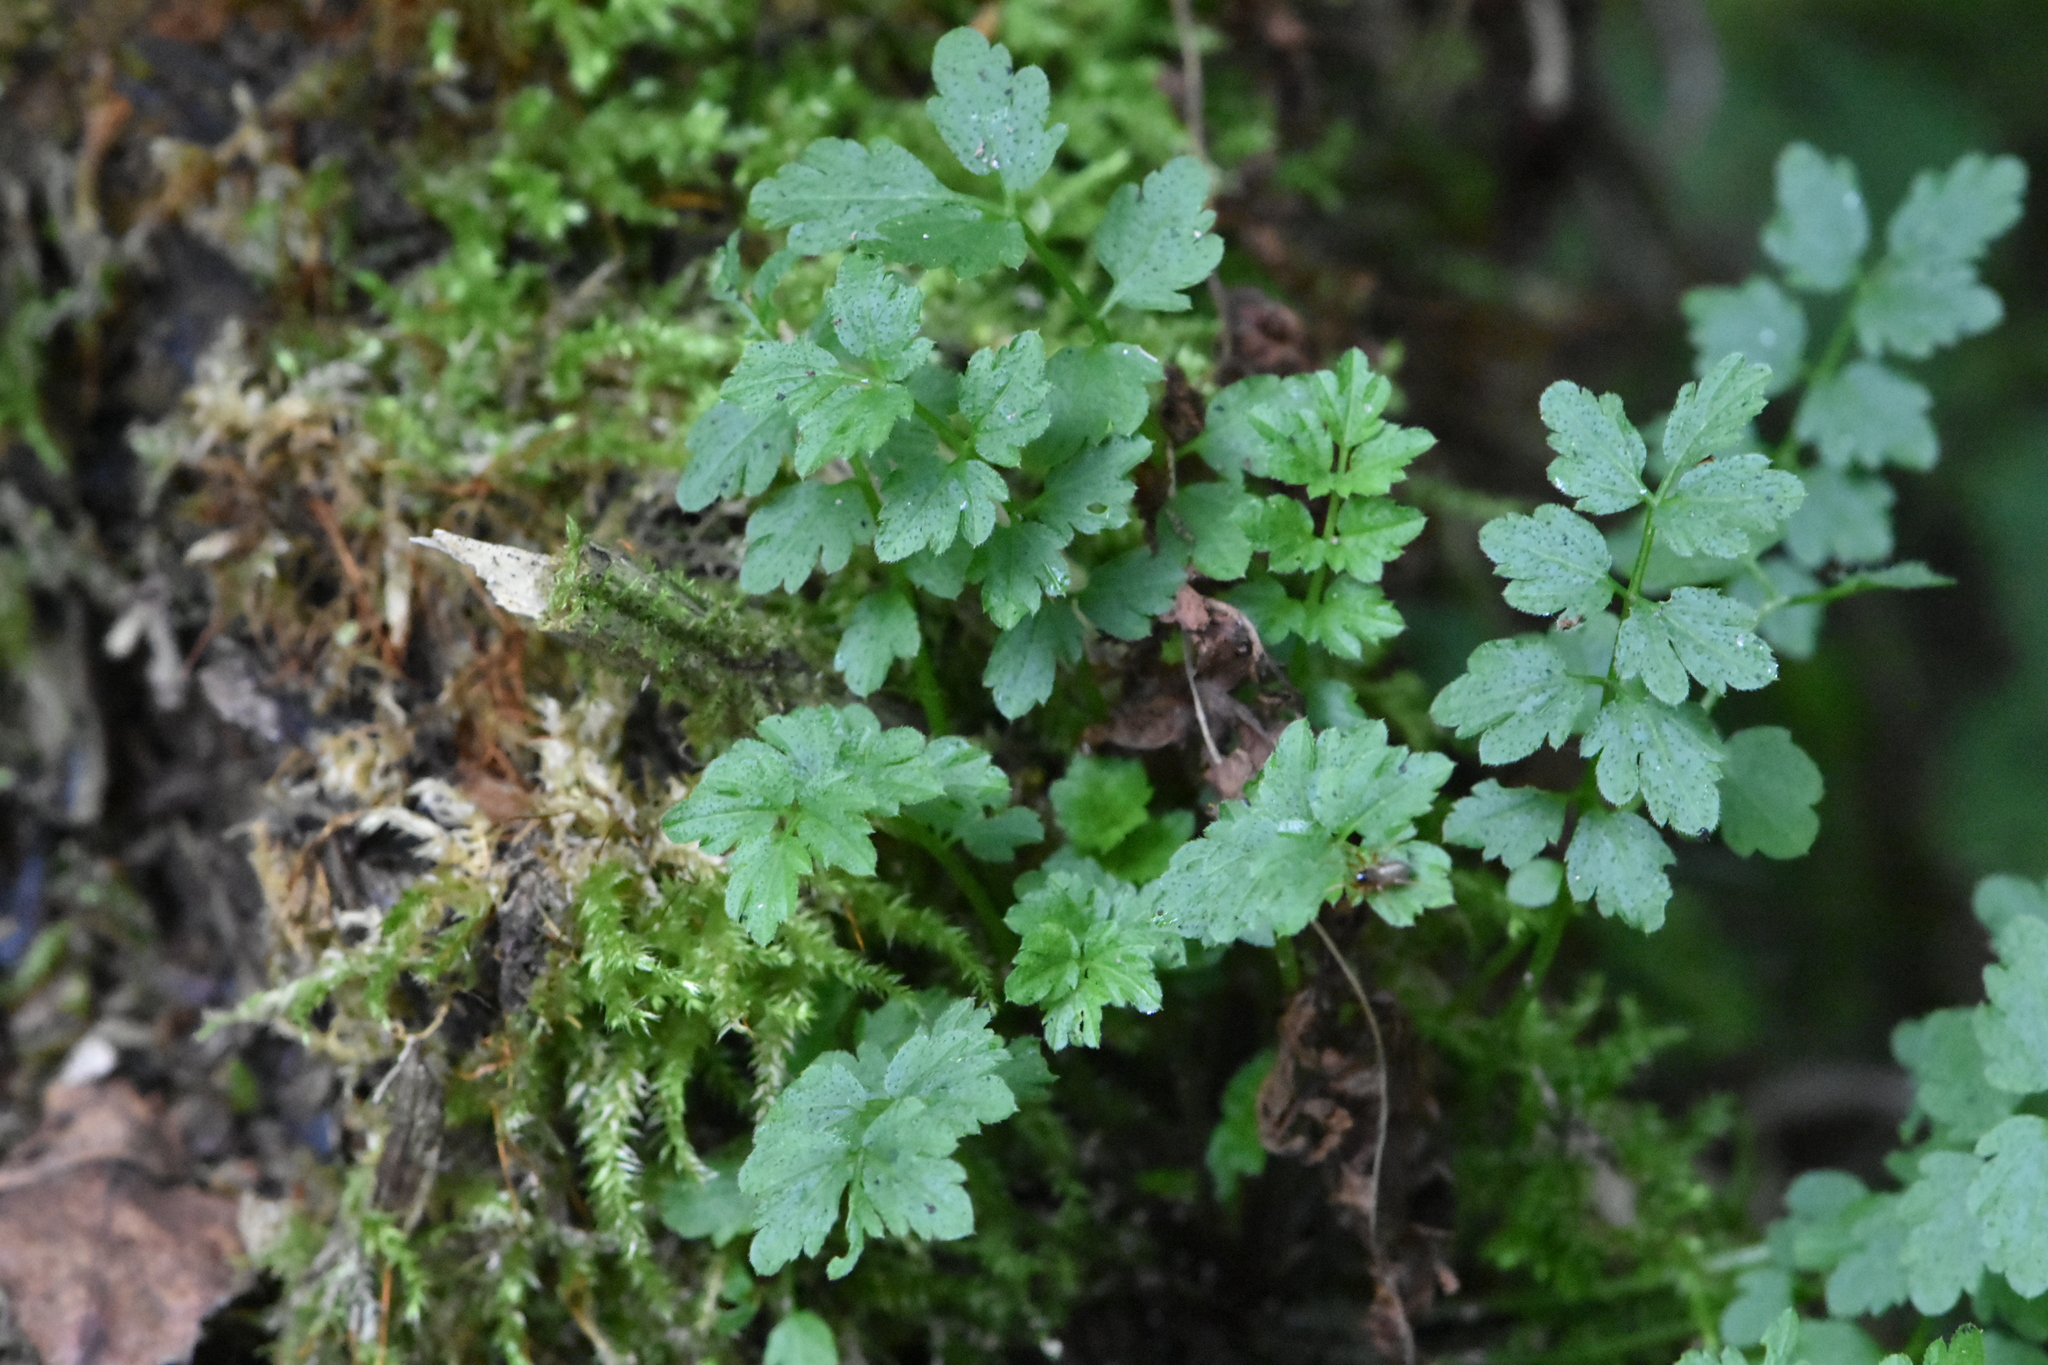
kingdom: Plantae
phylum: Tracheophyta
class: Magnoliopsida
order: Brassicales
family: Brassicaceae
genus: Cardamine
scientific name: Cardamine impatiens
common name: Narrow-leaved bitter-cress
